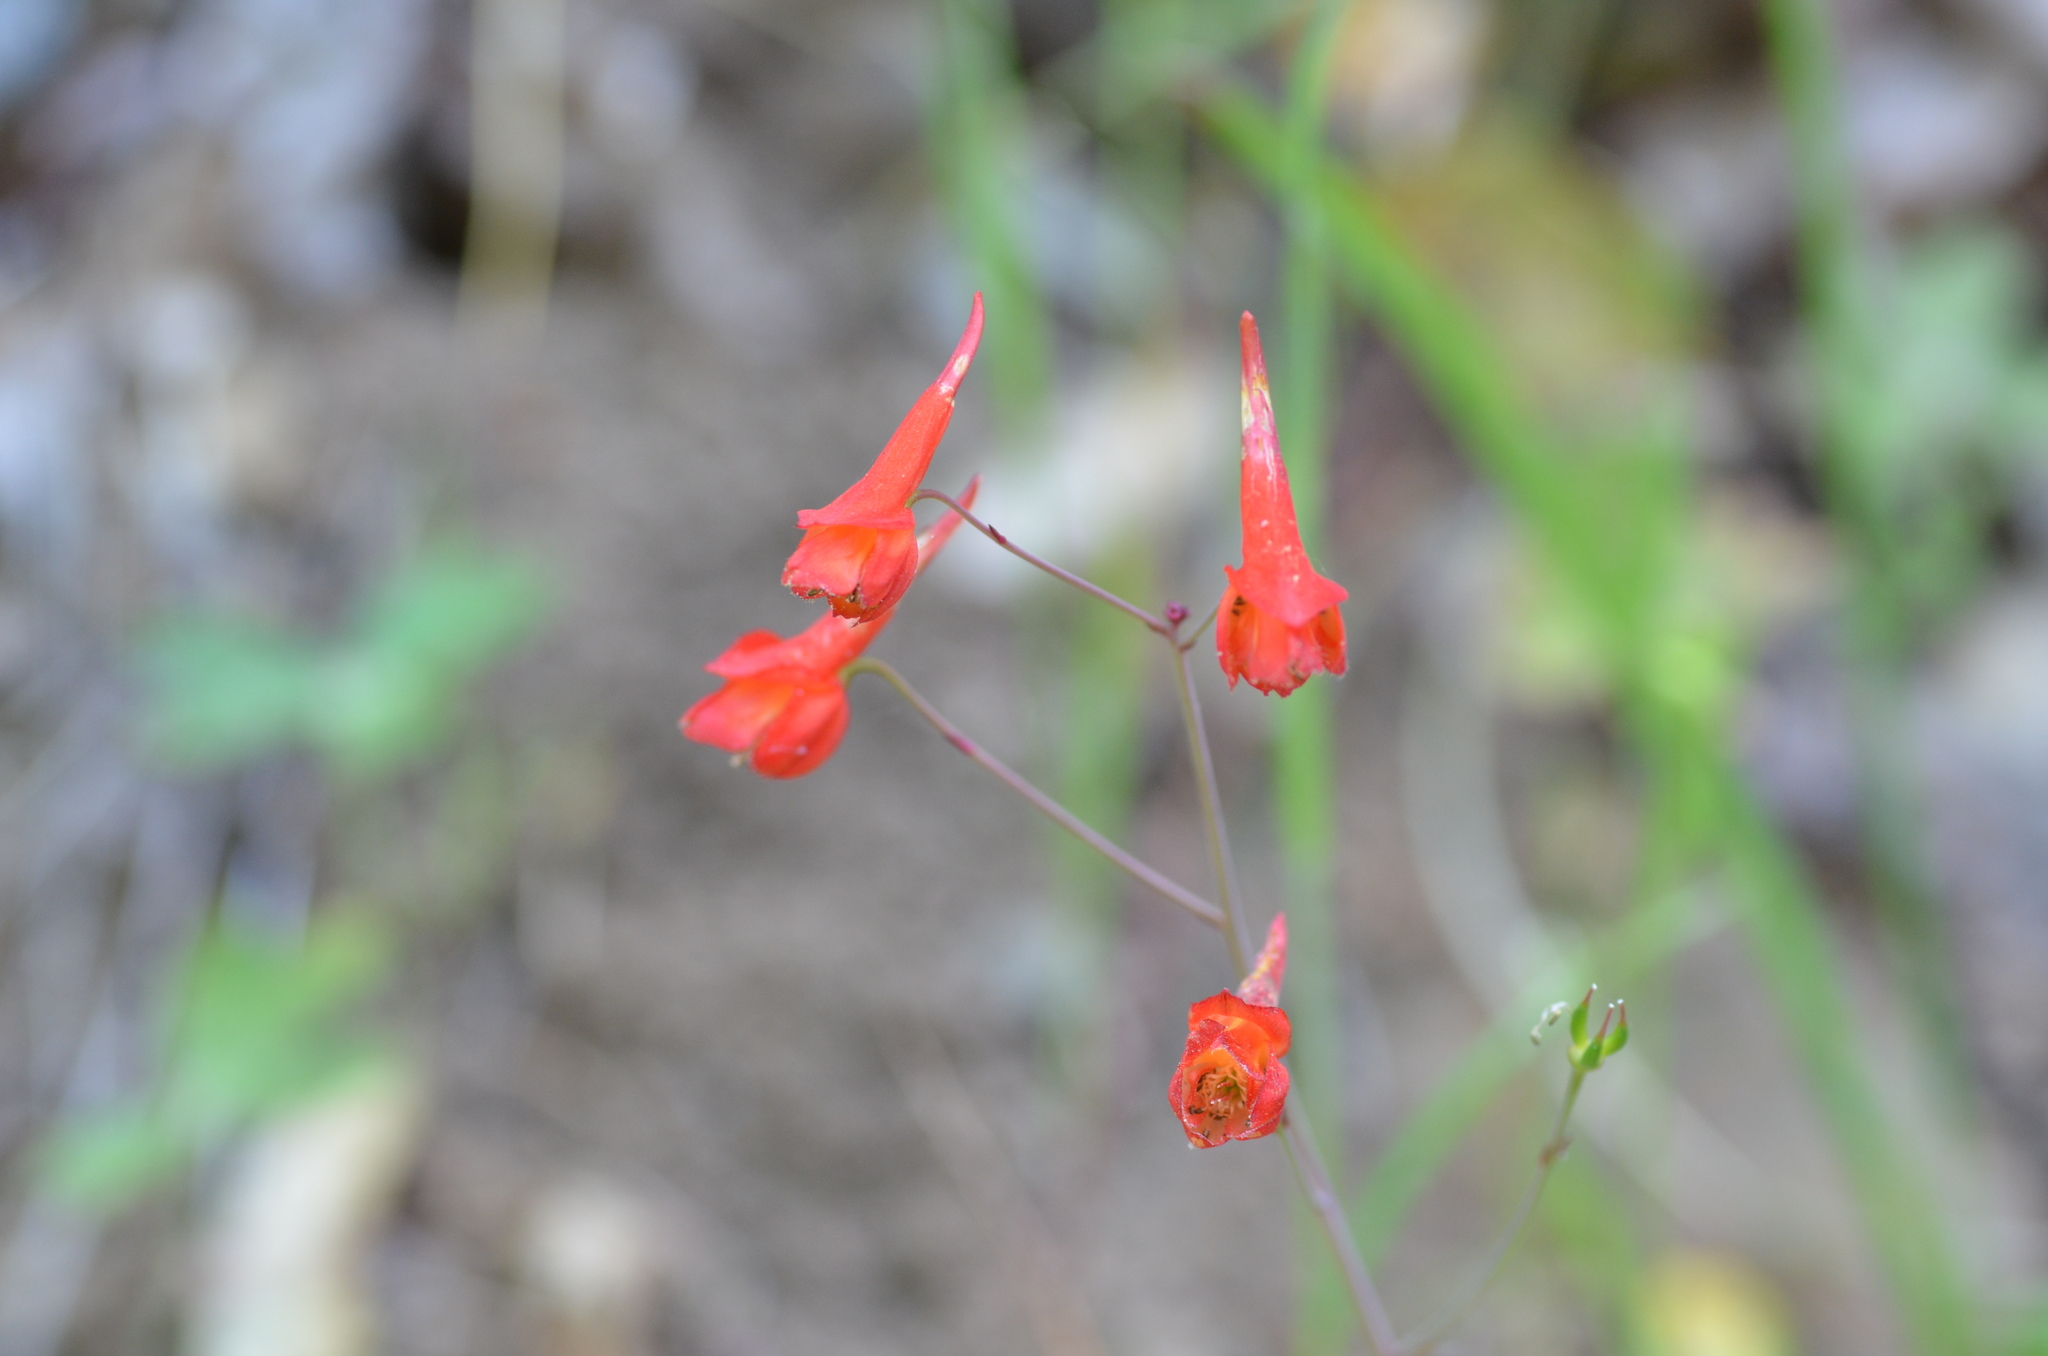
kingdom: Plantae
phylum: Tracheophyta
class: Magnoliopsida
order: Ranunculales
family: Ranunculaceae
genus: Delphinium
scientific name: Delphinium nudicaule
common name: Red larkspur
